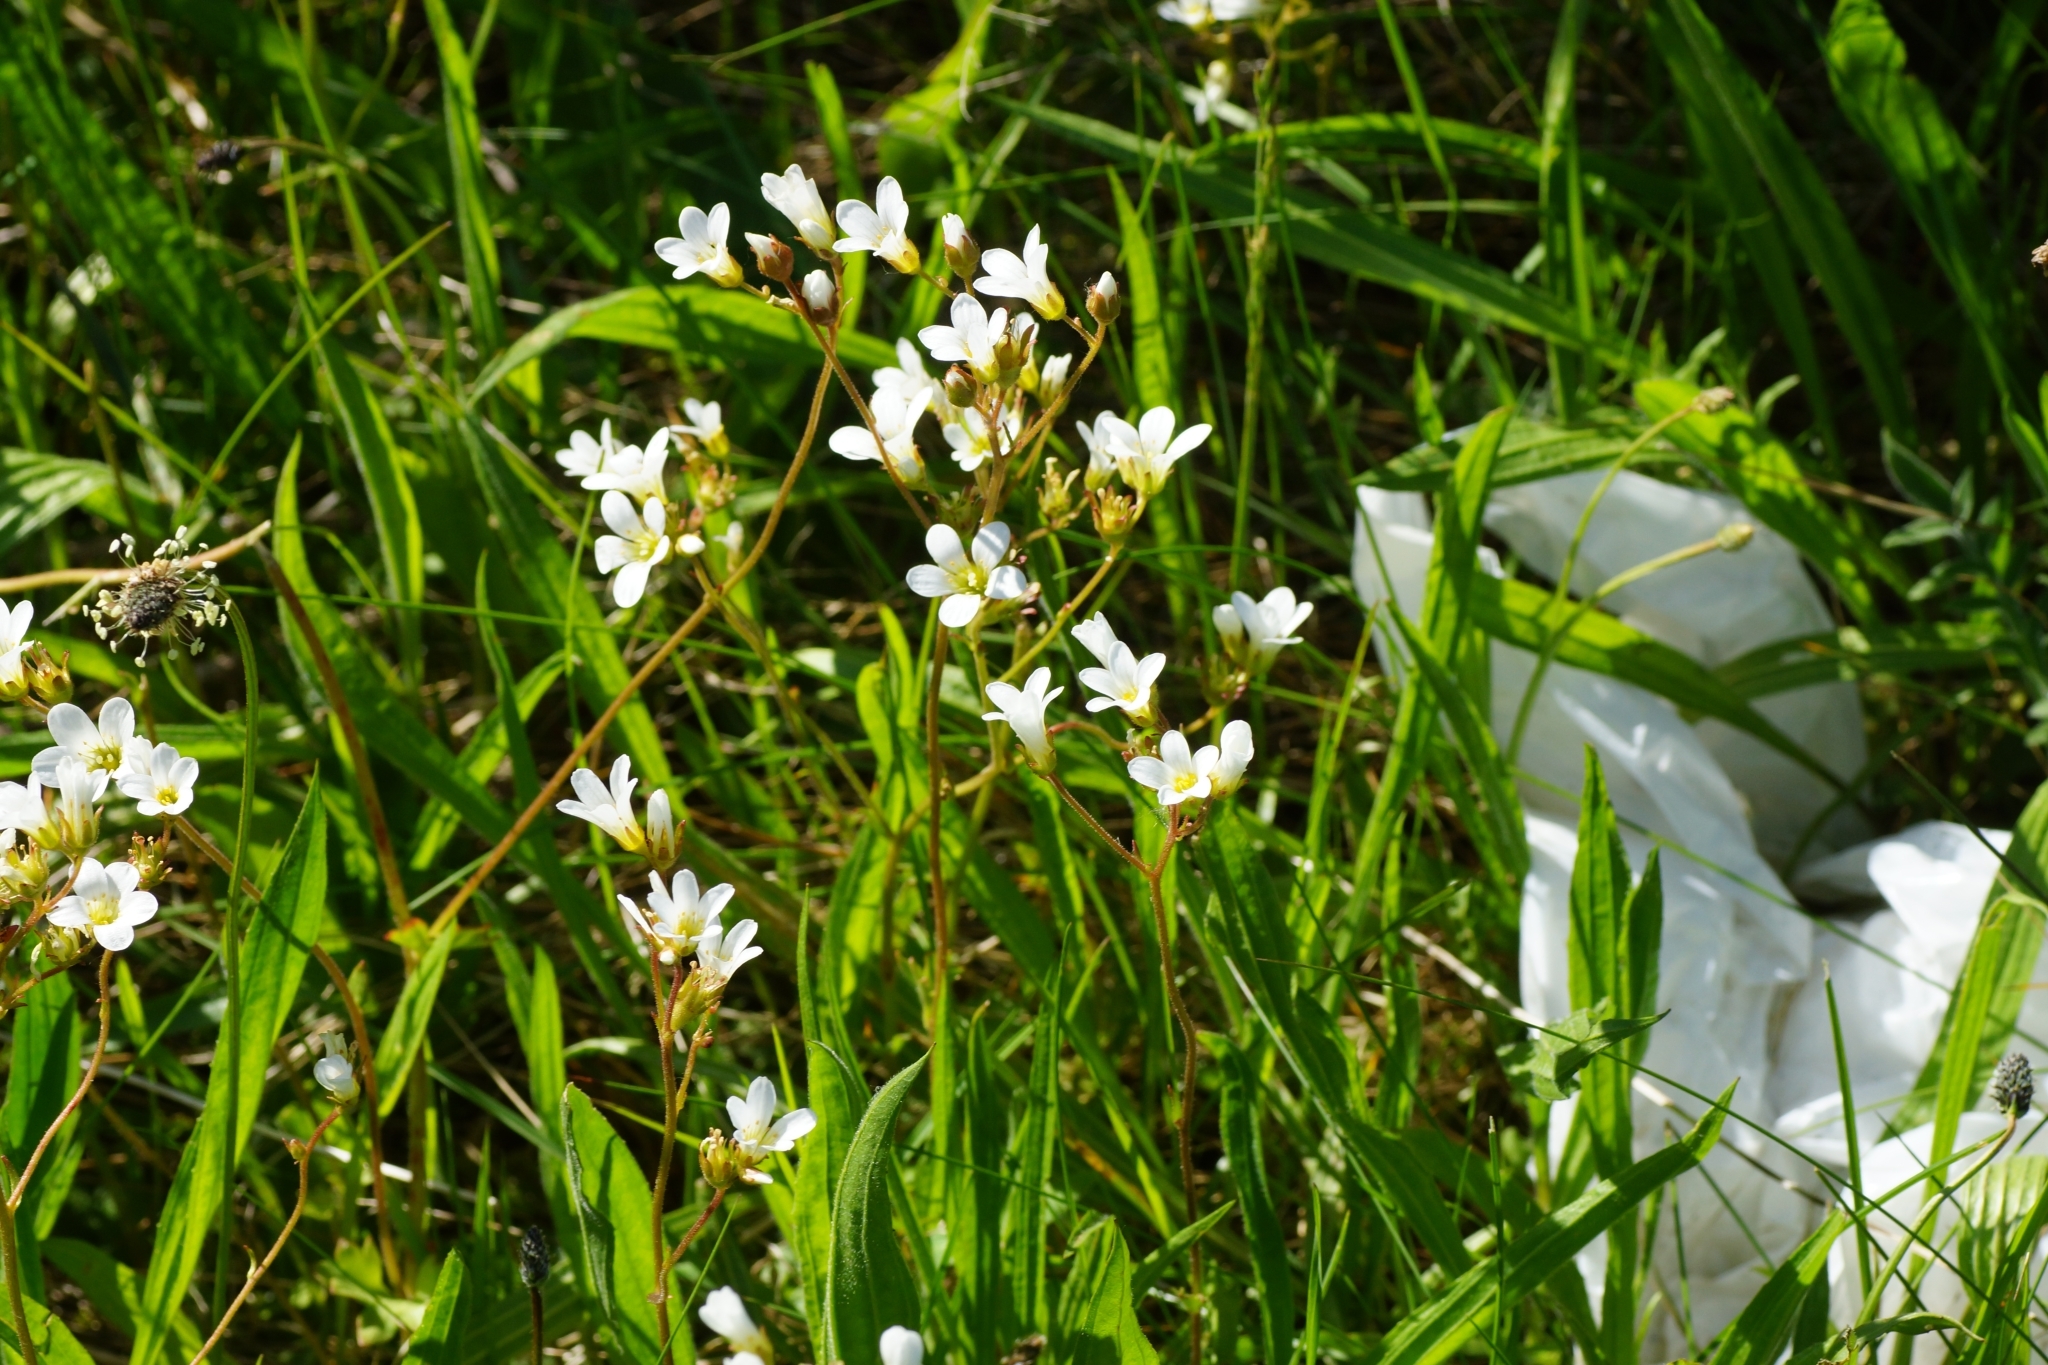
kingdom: Plantae
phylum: Tracheophyta
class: Magnoliopsida
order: Saxifragales
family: Saxifragaceae
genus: Saxifraga
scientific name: Saxifraga granulata
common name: Meadow saxifrage
